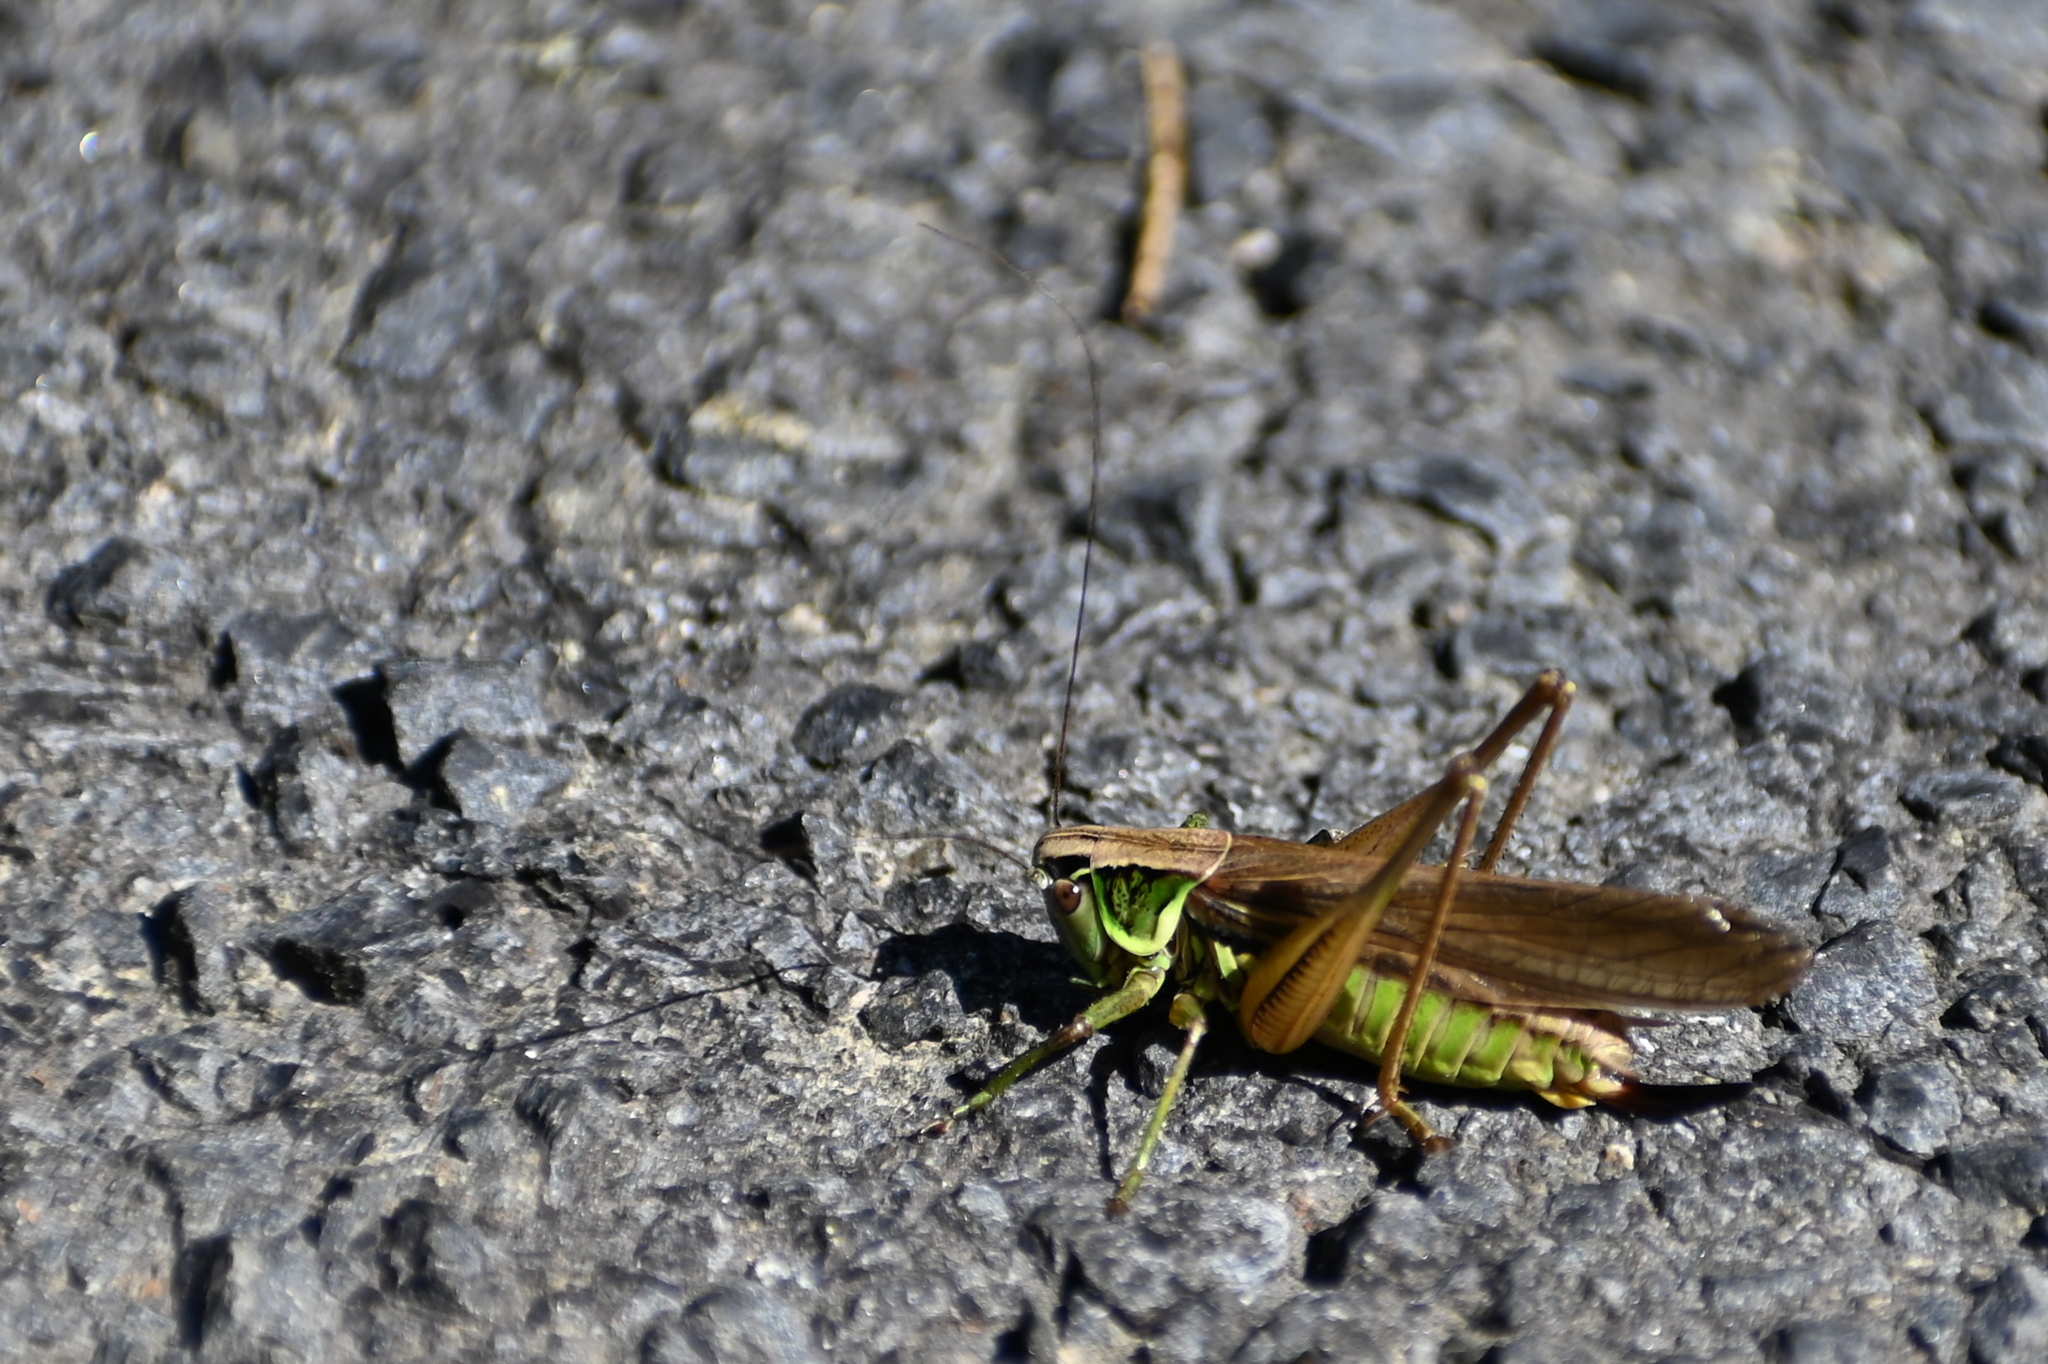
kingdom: Animalia
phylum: Arthropoda
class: Insecta
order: Orthoptera
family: Tettigoniidae
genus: Roeseliana
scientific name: Roeseliana roeselii
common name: Roesel's bush cricket
